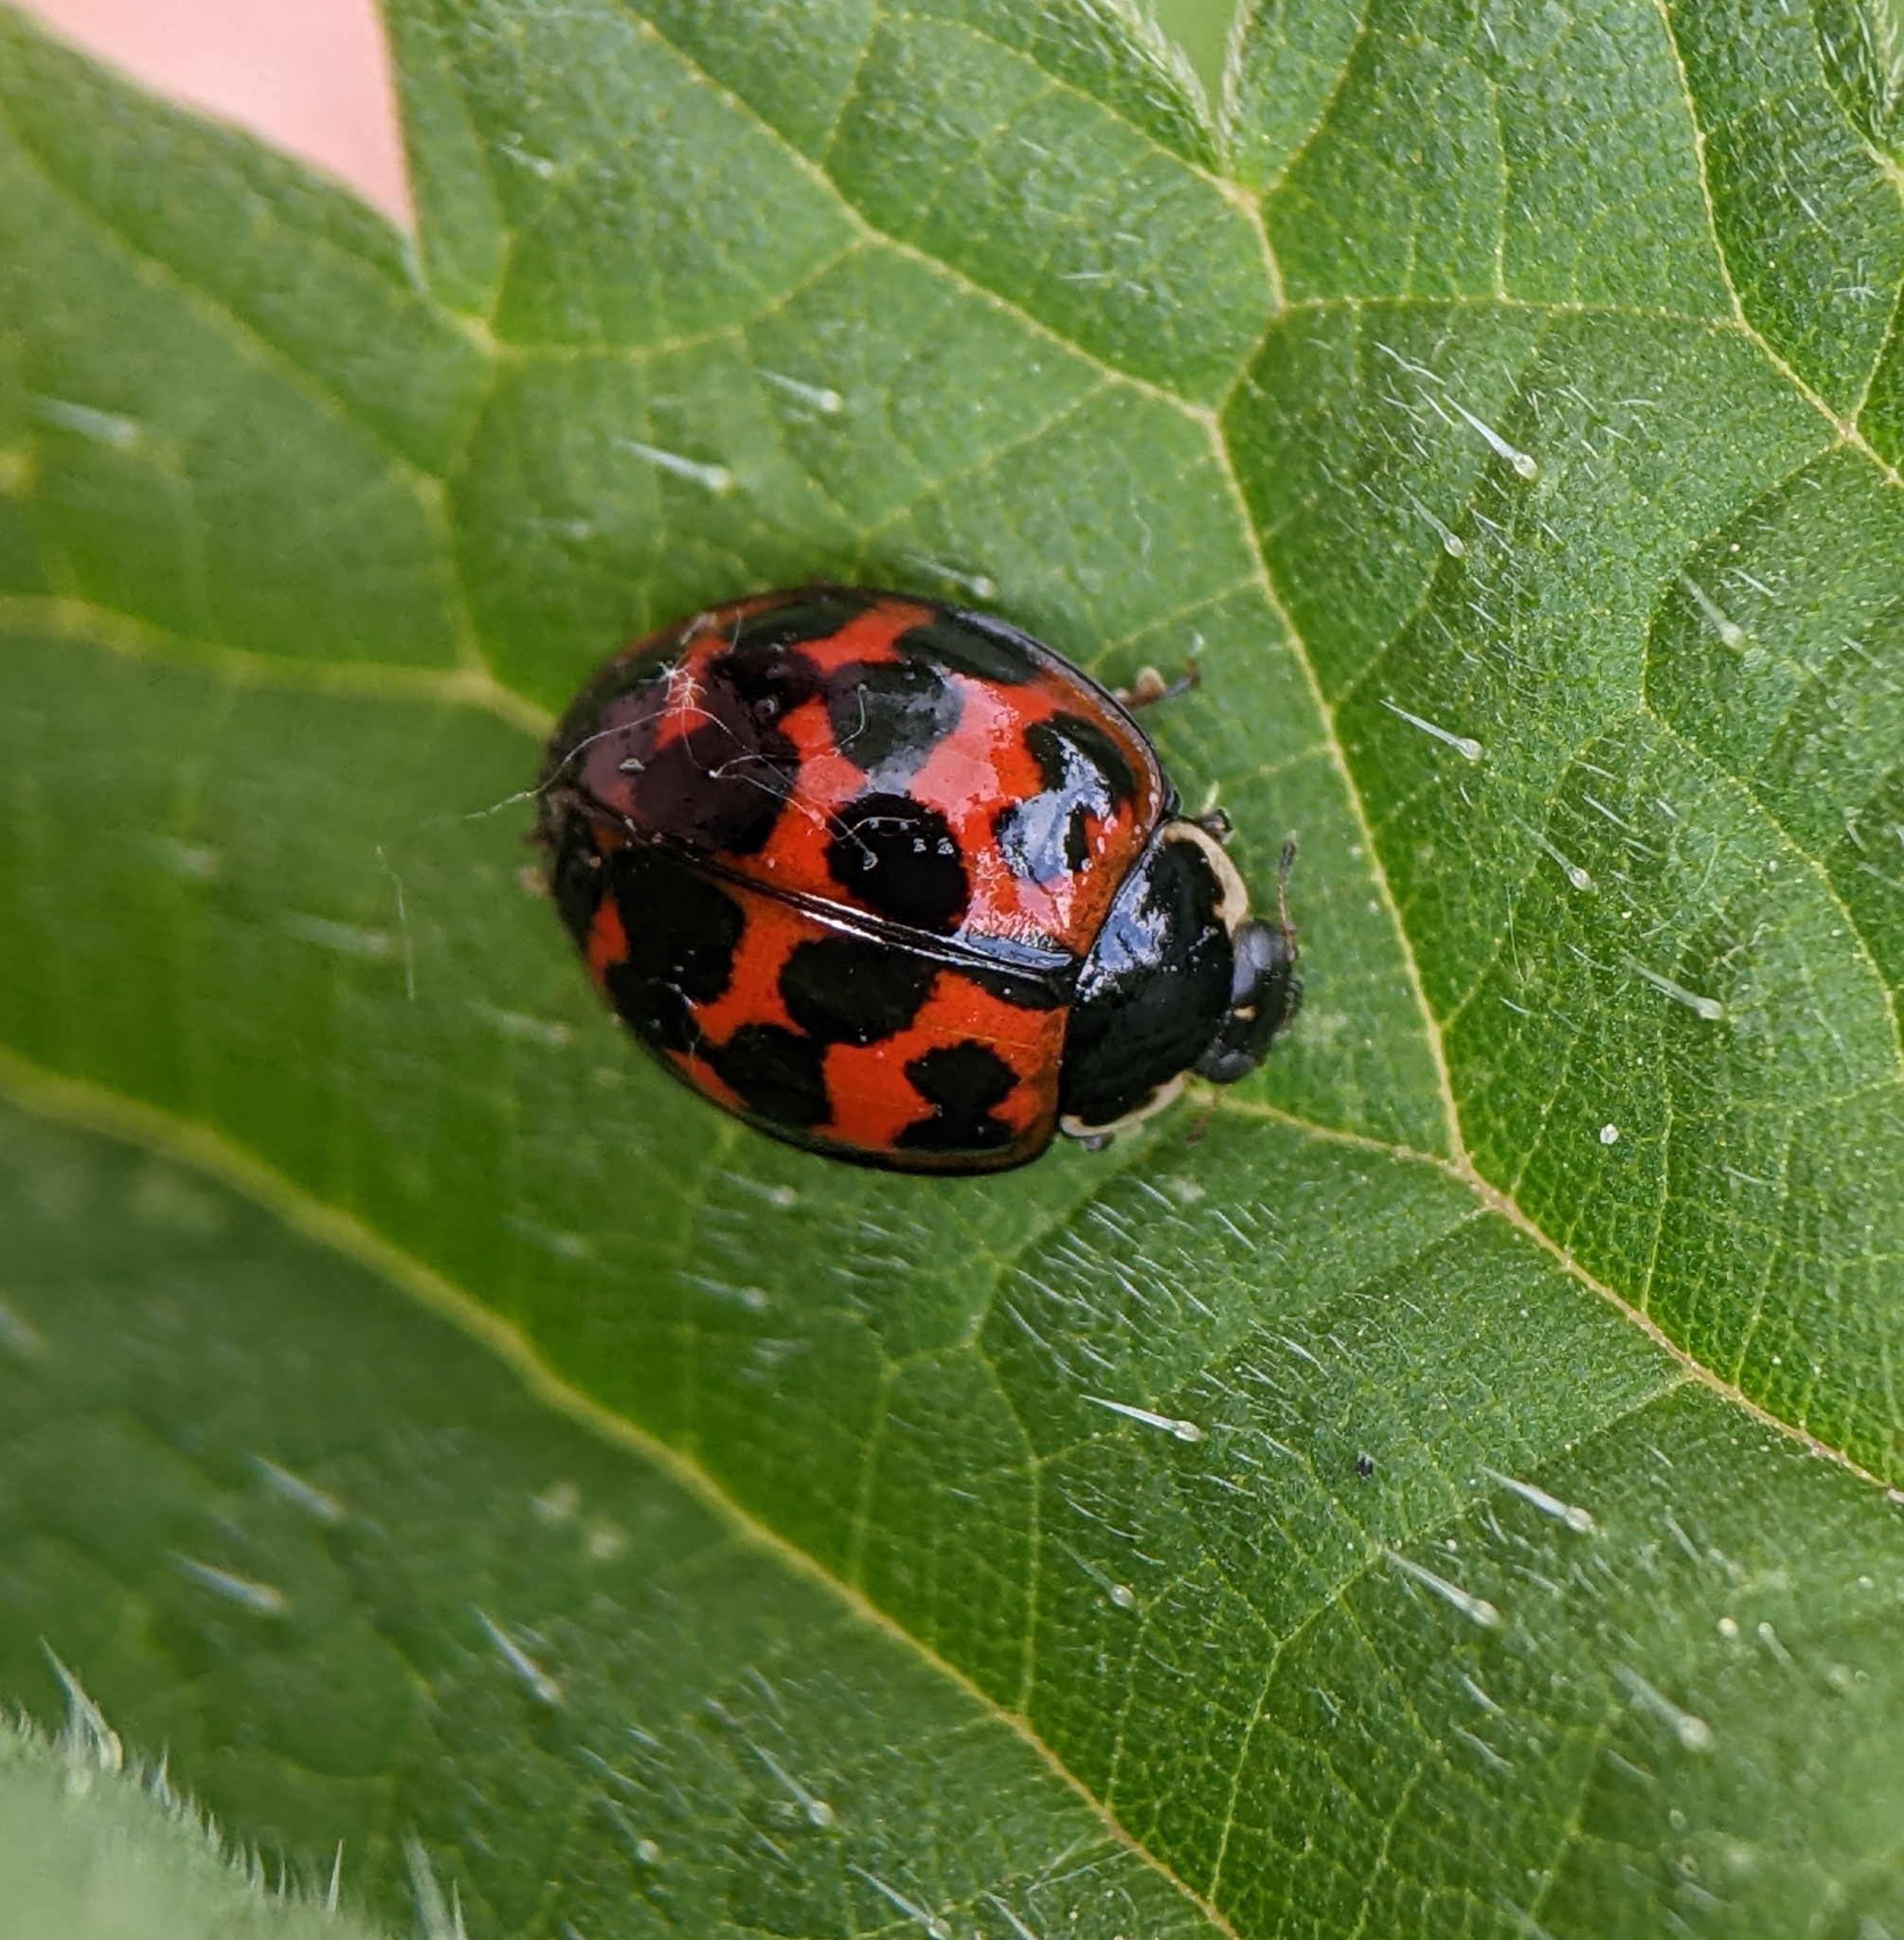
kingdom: Animalia
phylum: Arthropoda
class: Insecta
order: Coleoptera
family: Coccinellidae
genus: Harmonia
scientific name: Harmonia axyridis
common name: Harlequin ladybird
